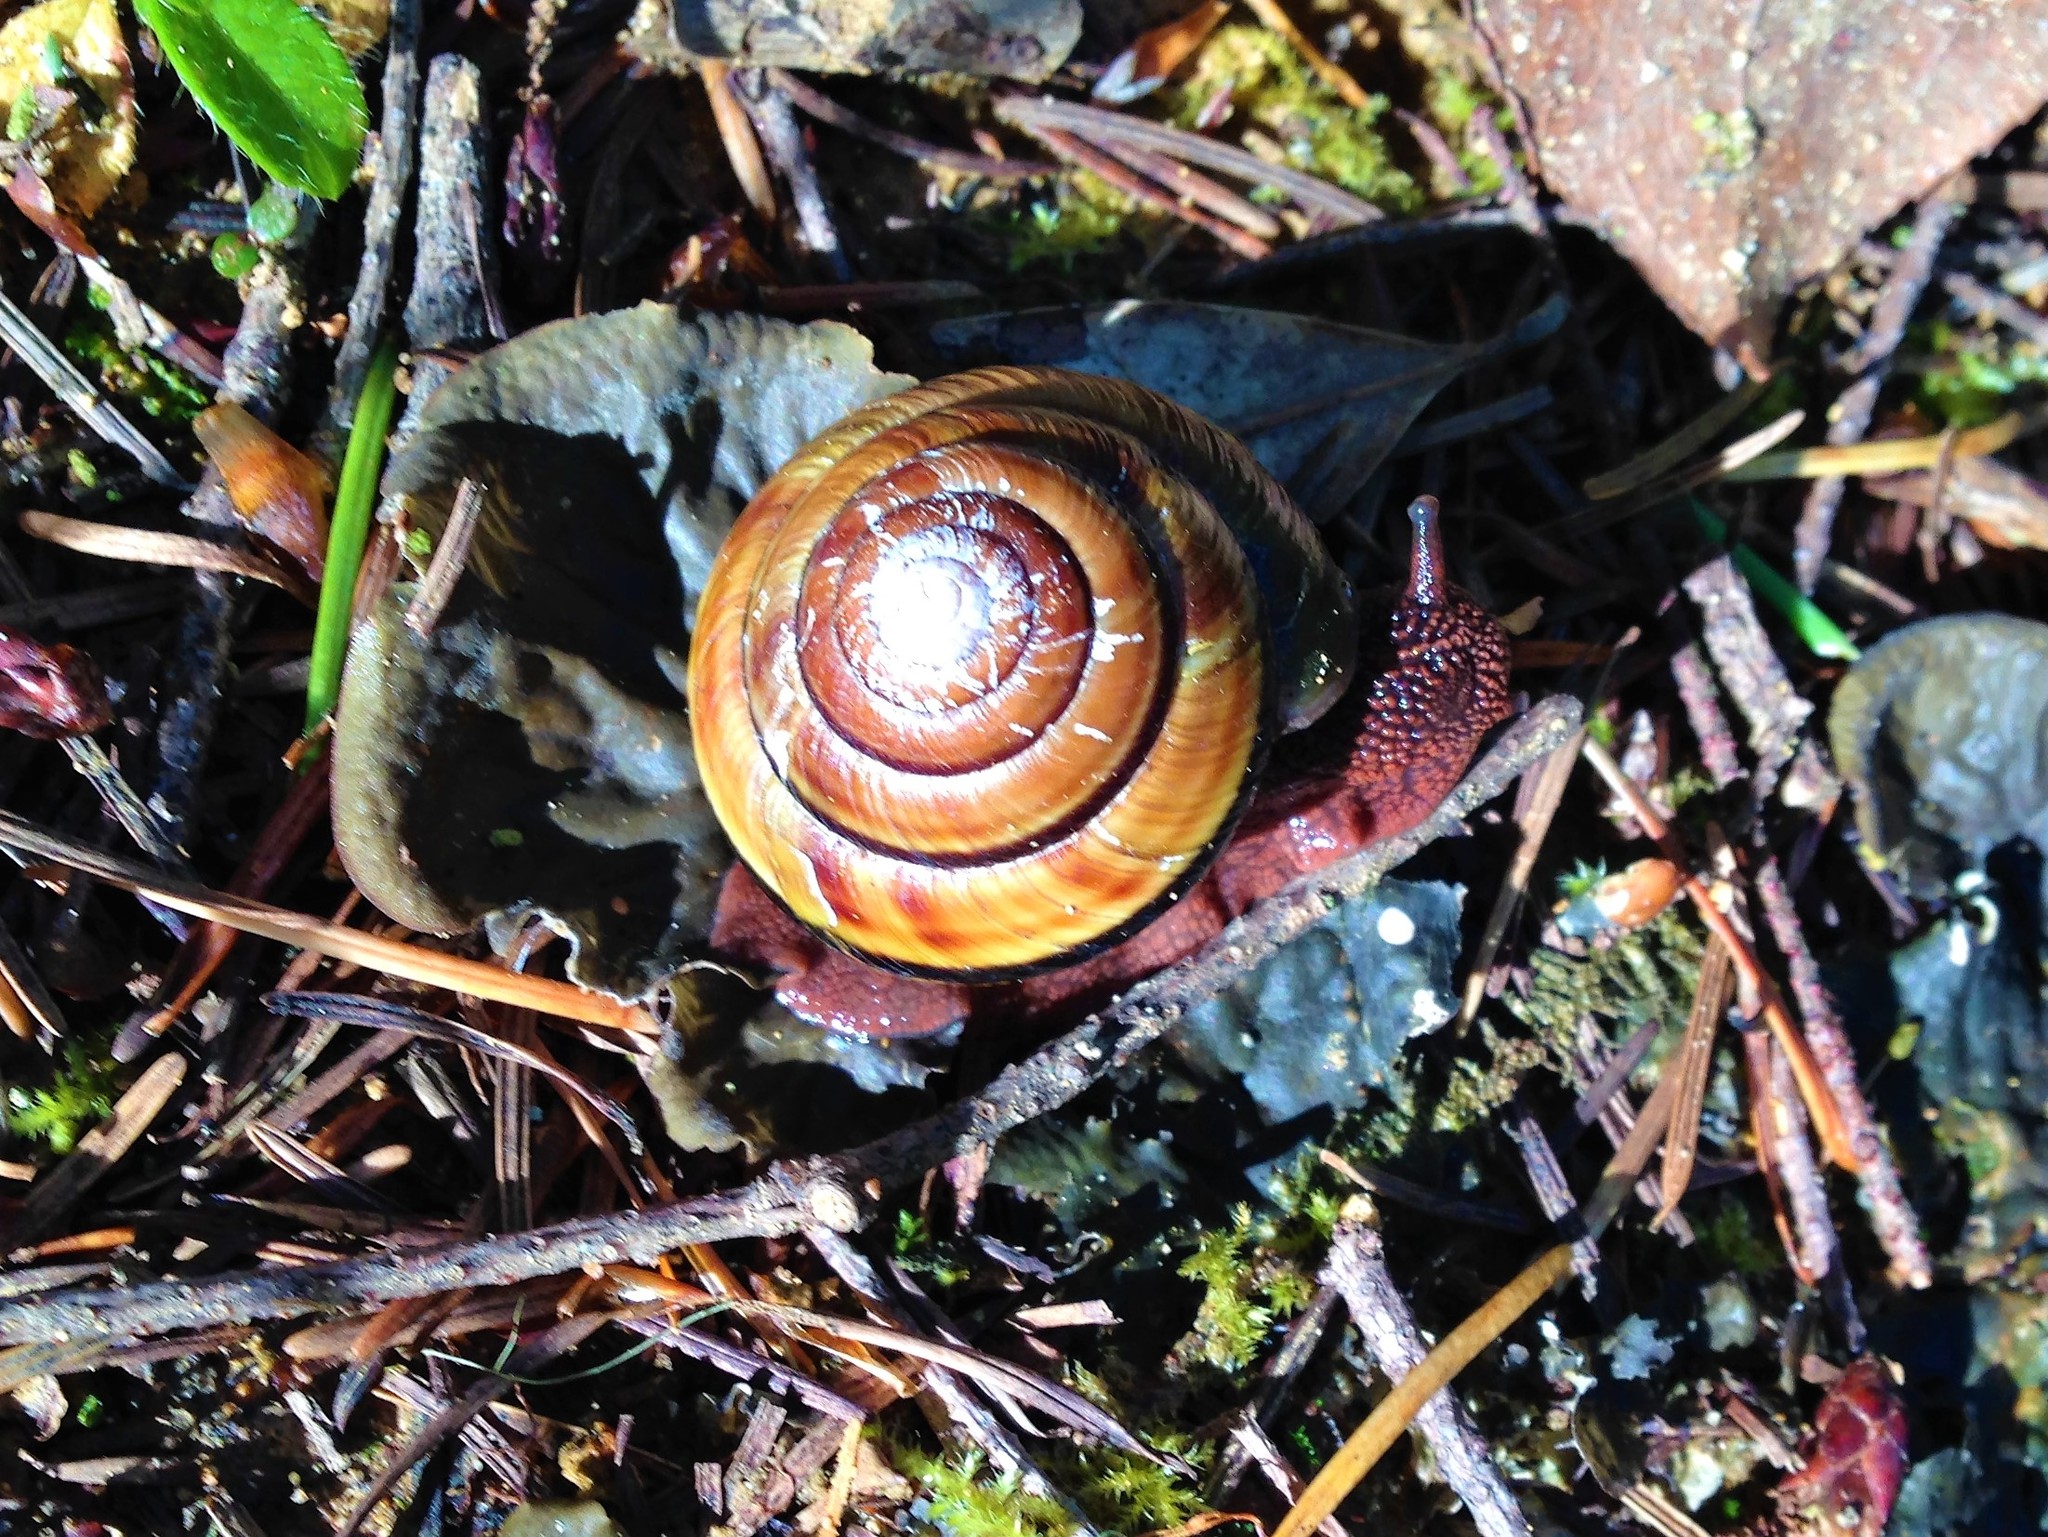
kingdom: Animalia
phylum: Mollusca
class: Gastropoda
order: Stylommatophora
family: Xanthonychidae
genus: Monadenia
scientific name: Monadenia fidelis
